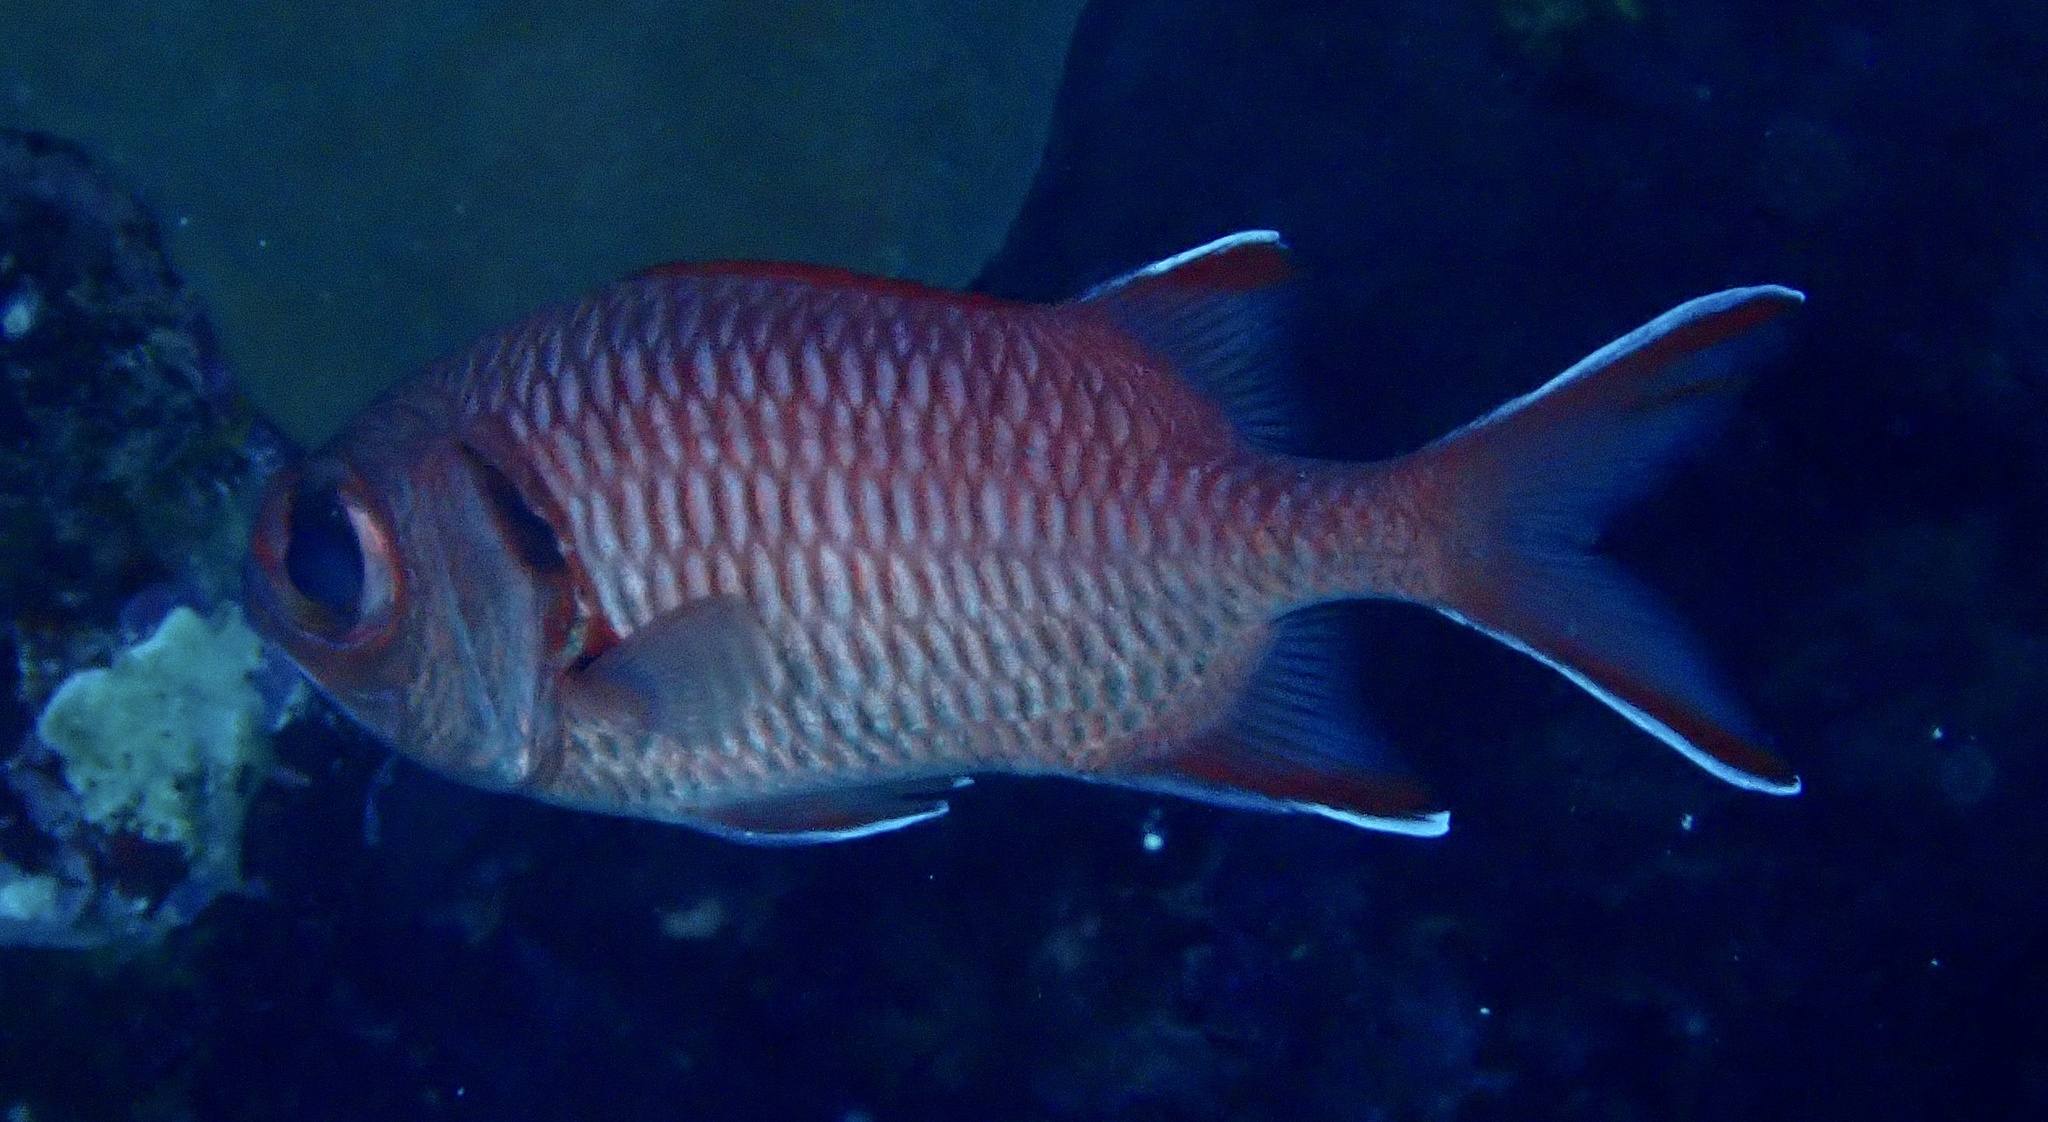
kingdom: Animalia
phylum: Chordata
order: Beryciformes
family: Holocentridae
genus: Myripristis
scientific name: Myripristis murdjan
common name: Big-eye soldierfish
